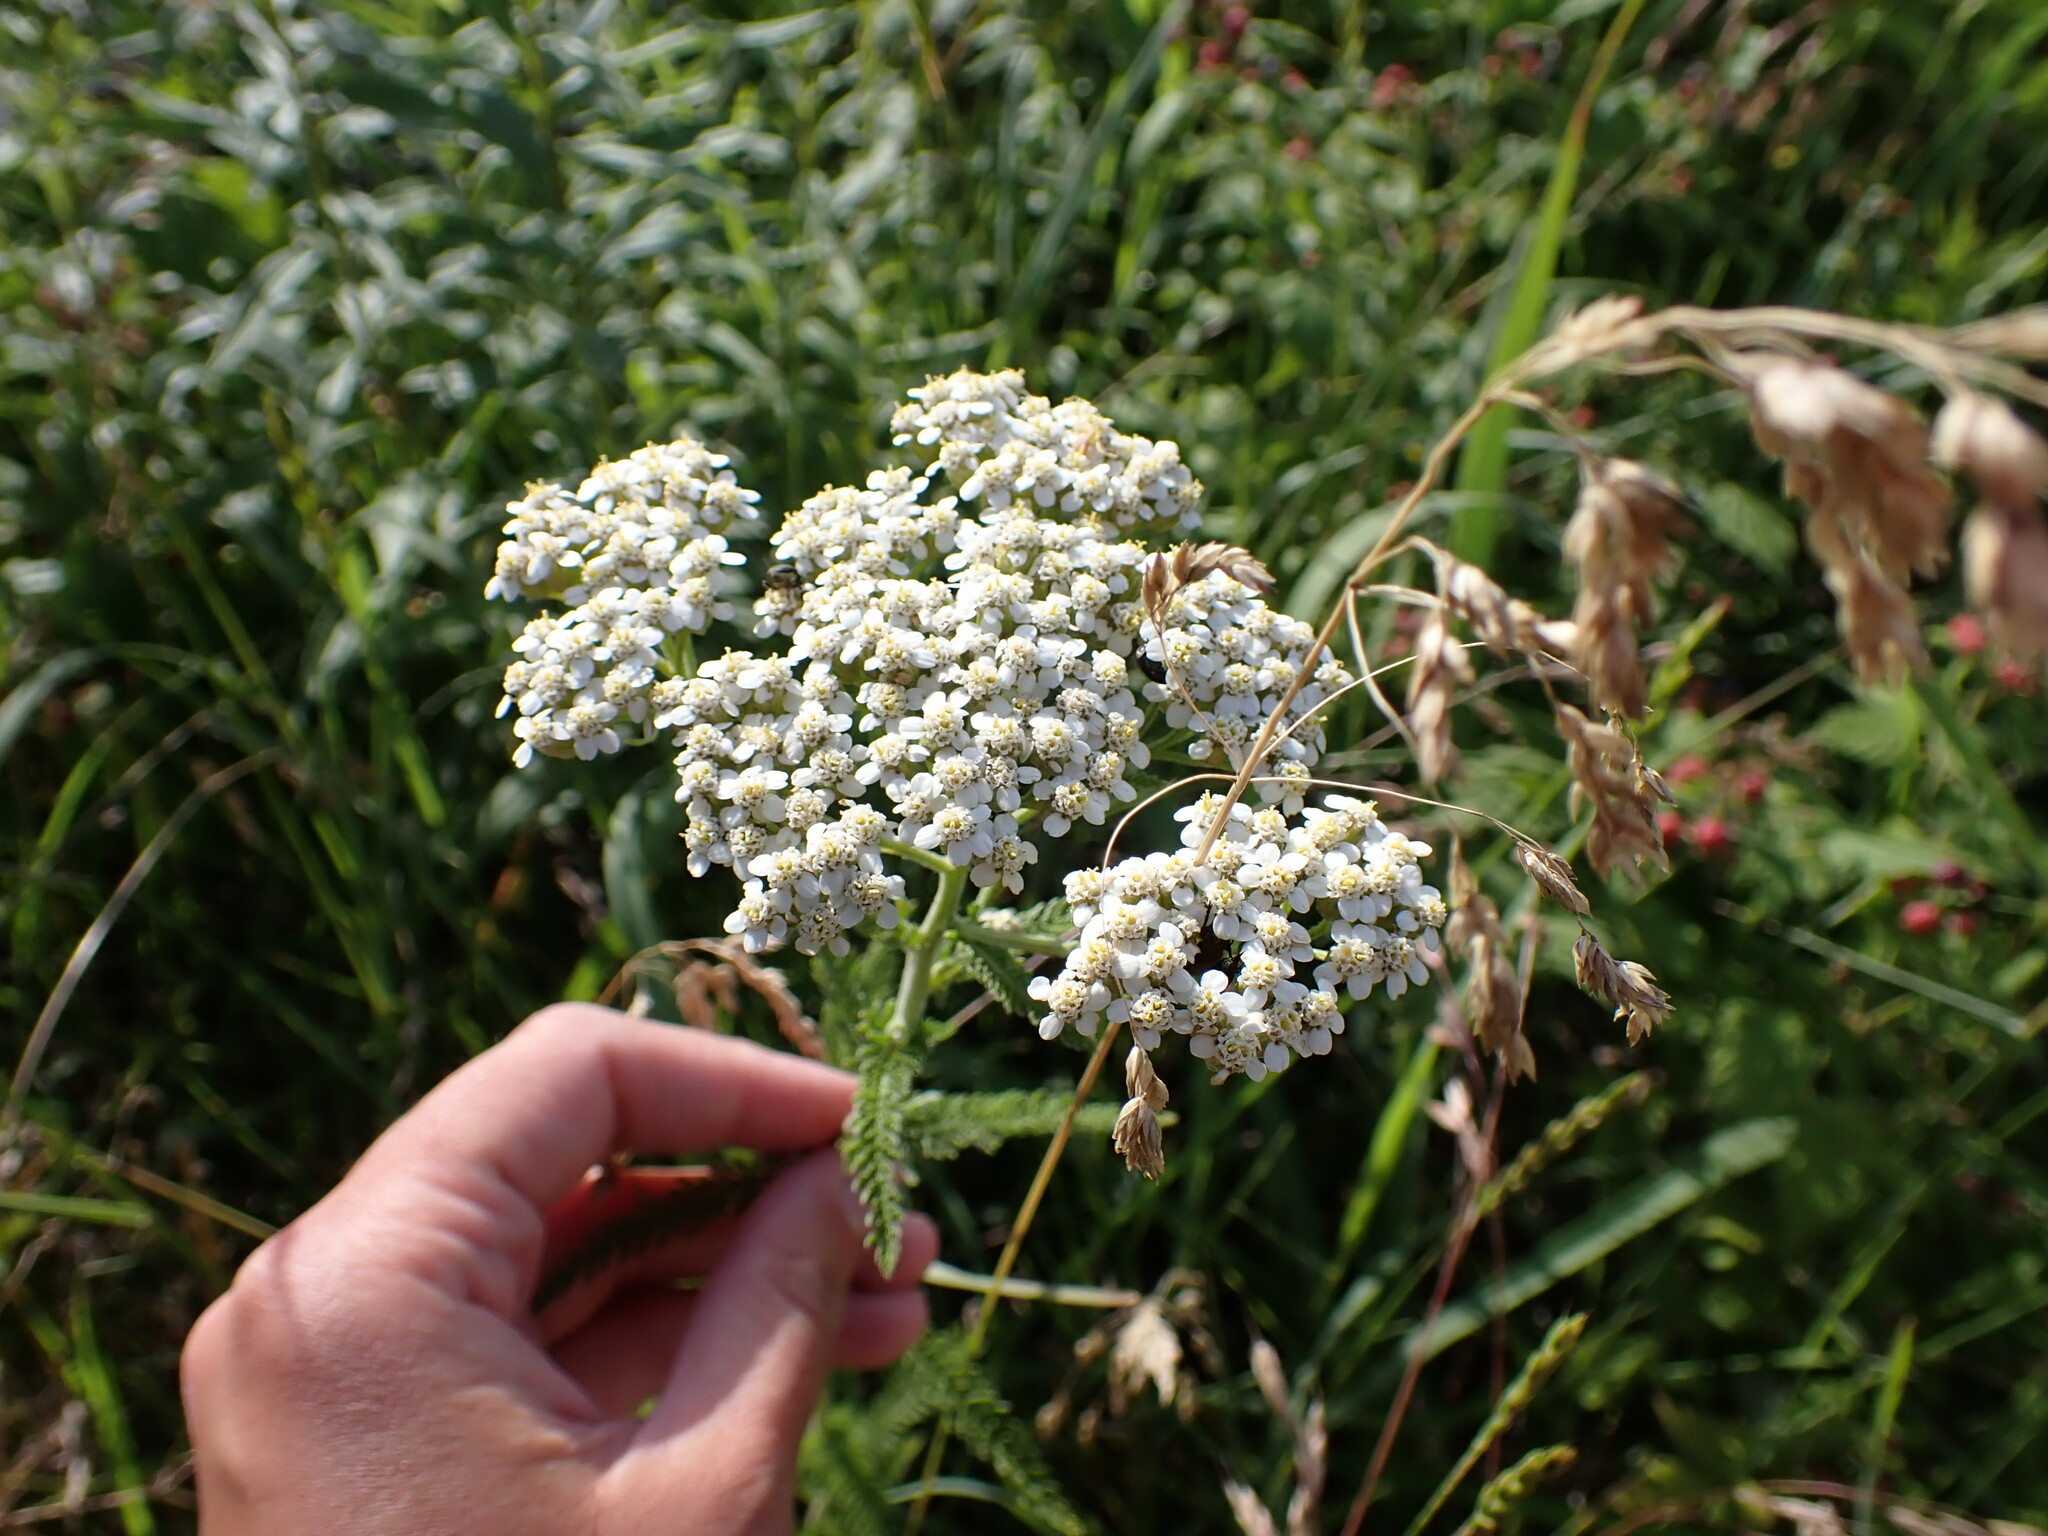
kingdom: Plantae
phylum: Tracheophyta
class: Magnoliopsida
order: Asterales
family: Asteraceae
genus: Achillea
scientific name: Achillea millefolium
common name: Yarrow
